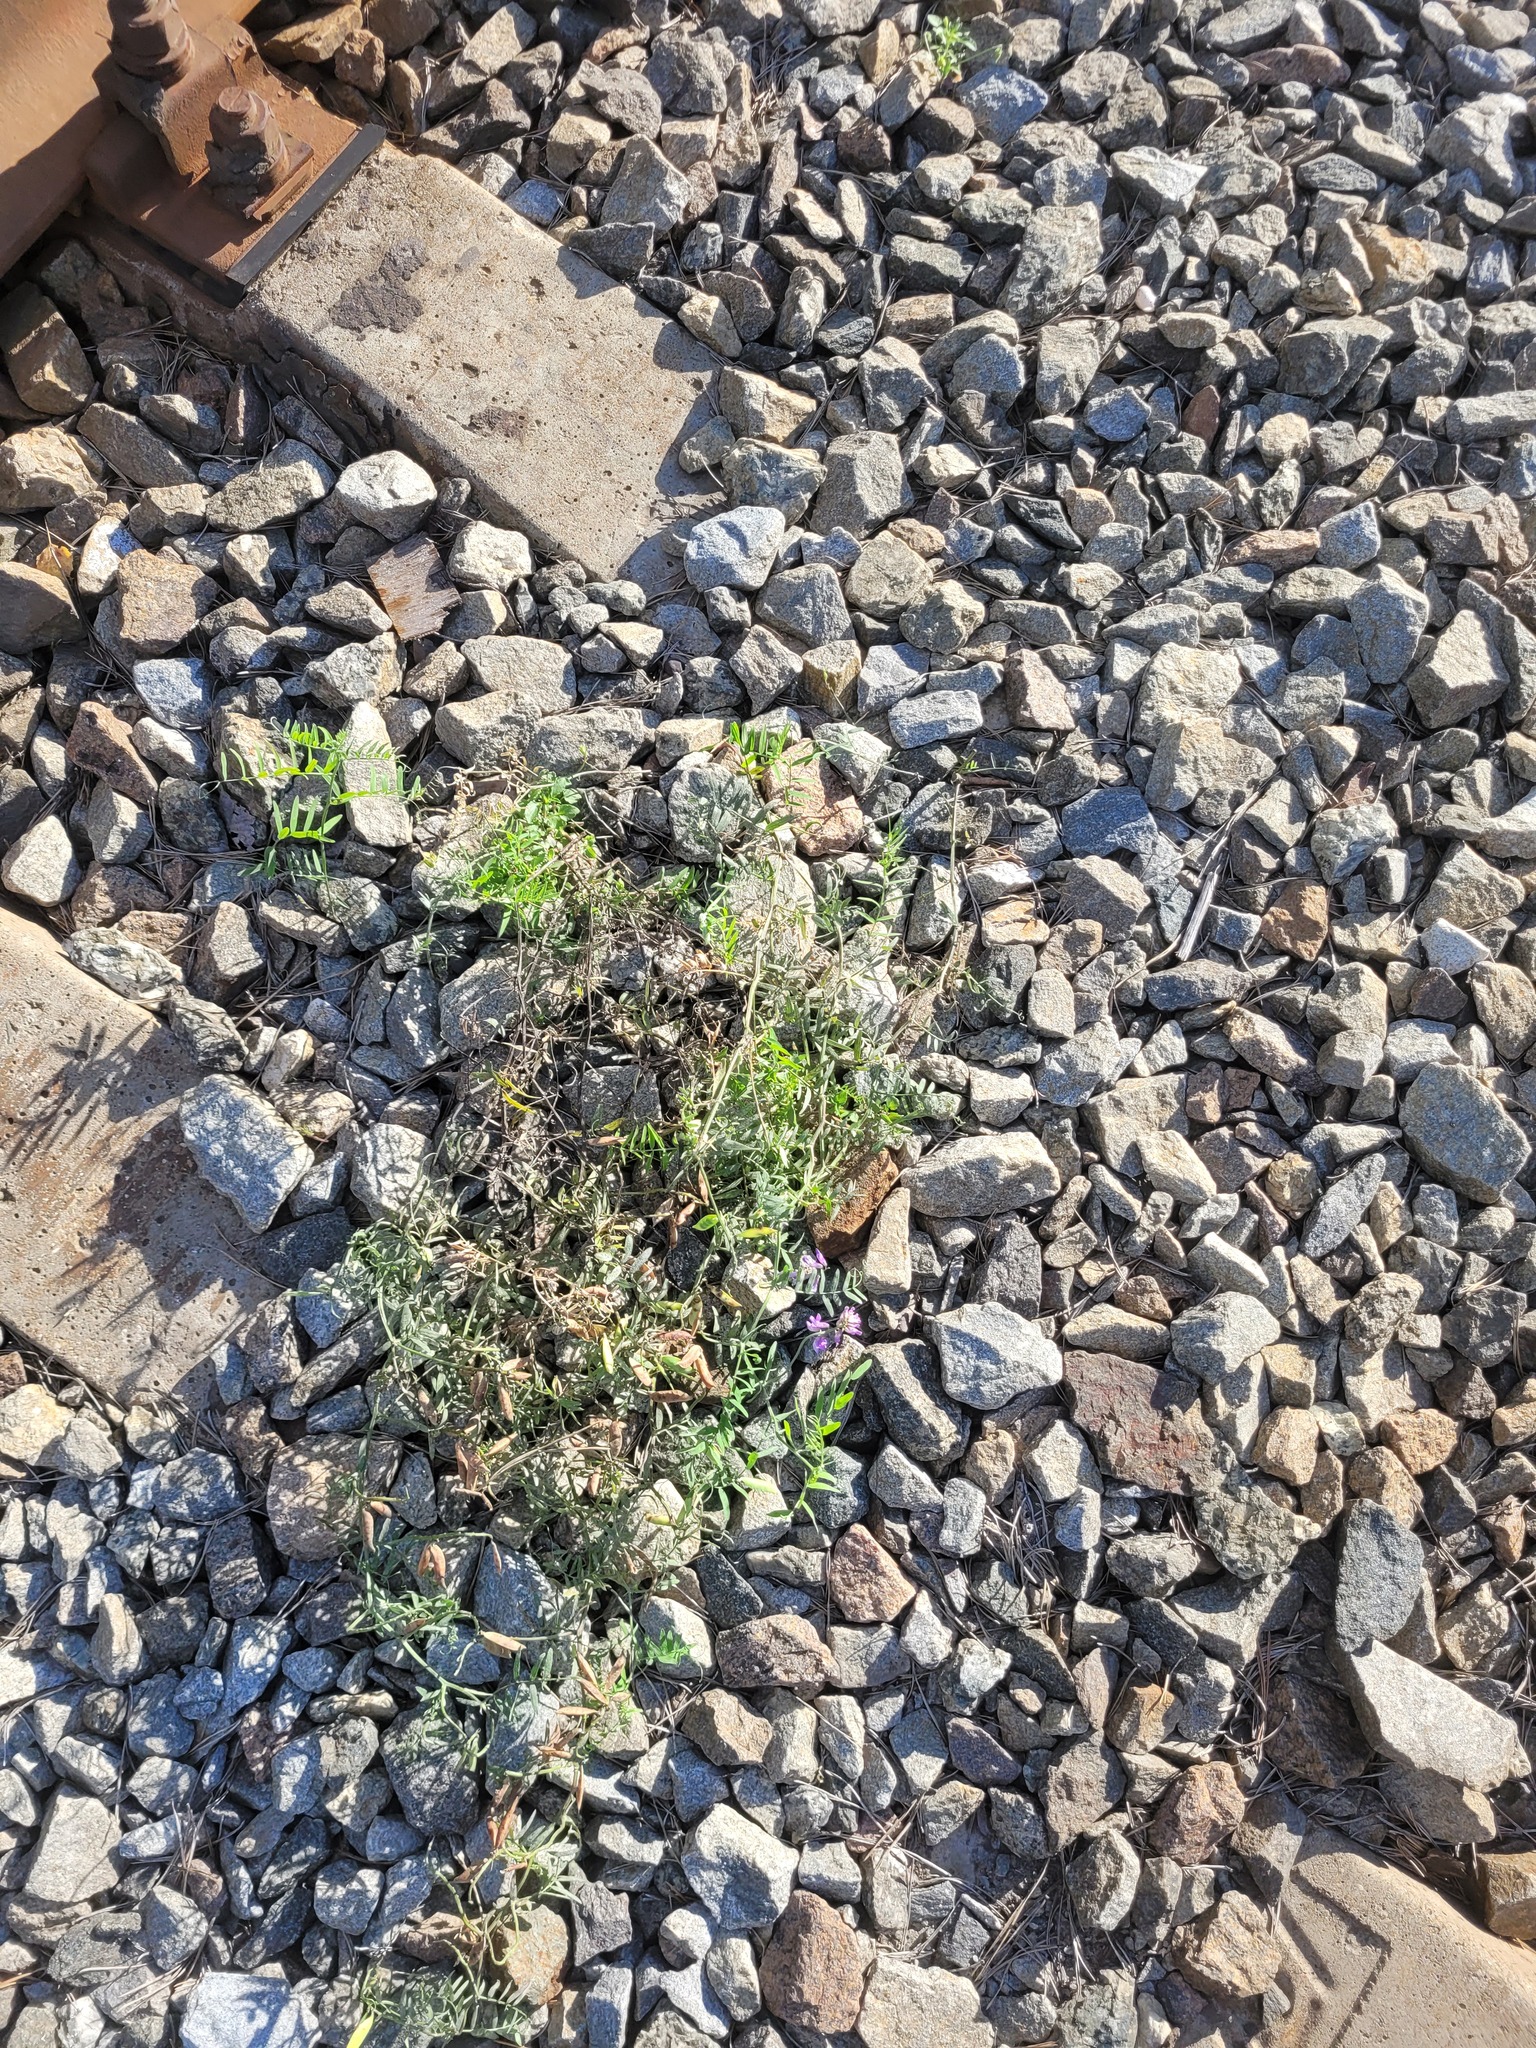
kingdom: Plantae
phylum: Tracheophyta
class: Magnoliopsida
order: Fabales
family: Fabaceae
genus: Vicia
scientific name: Vicia cracca
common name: Bird vetch
